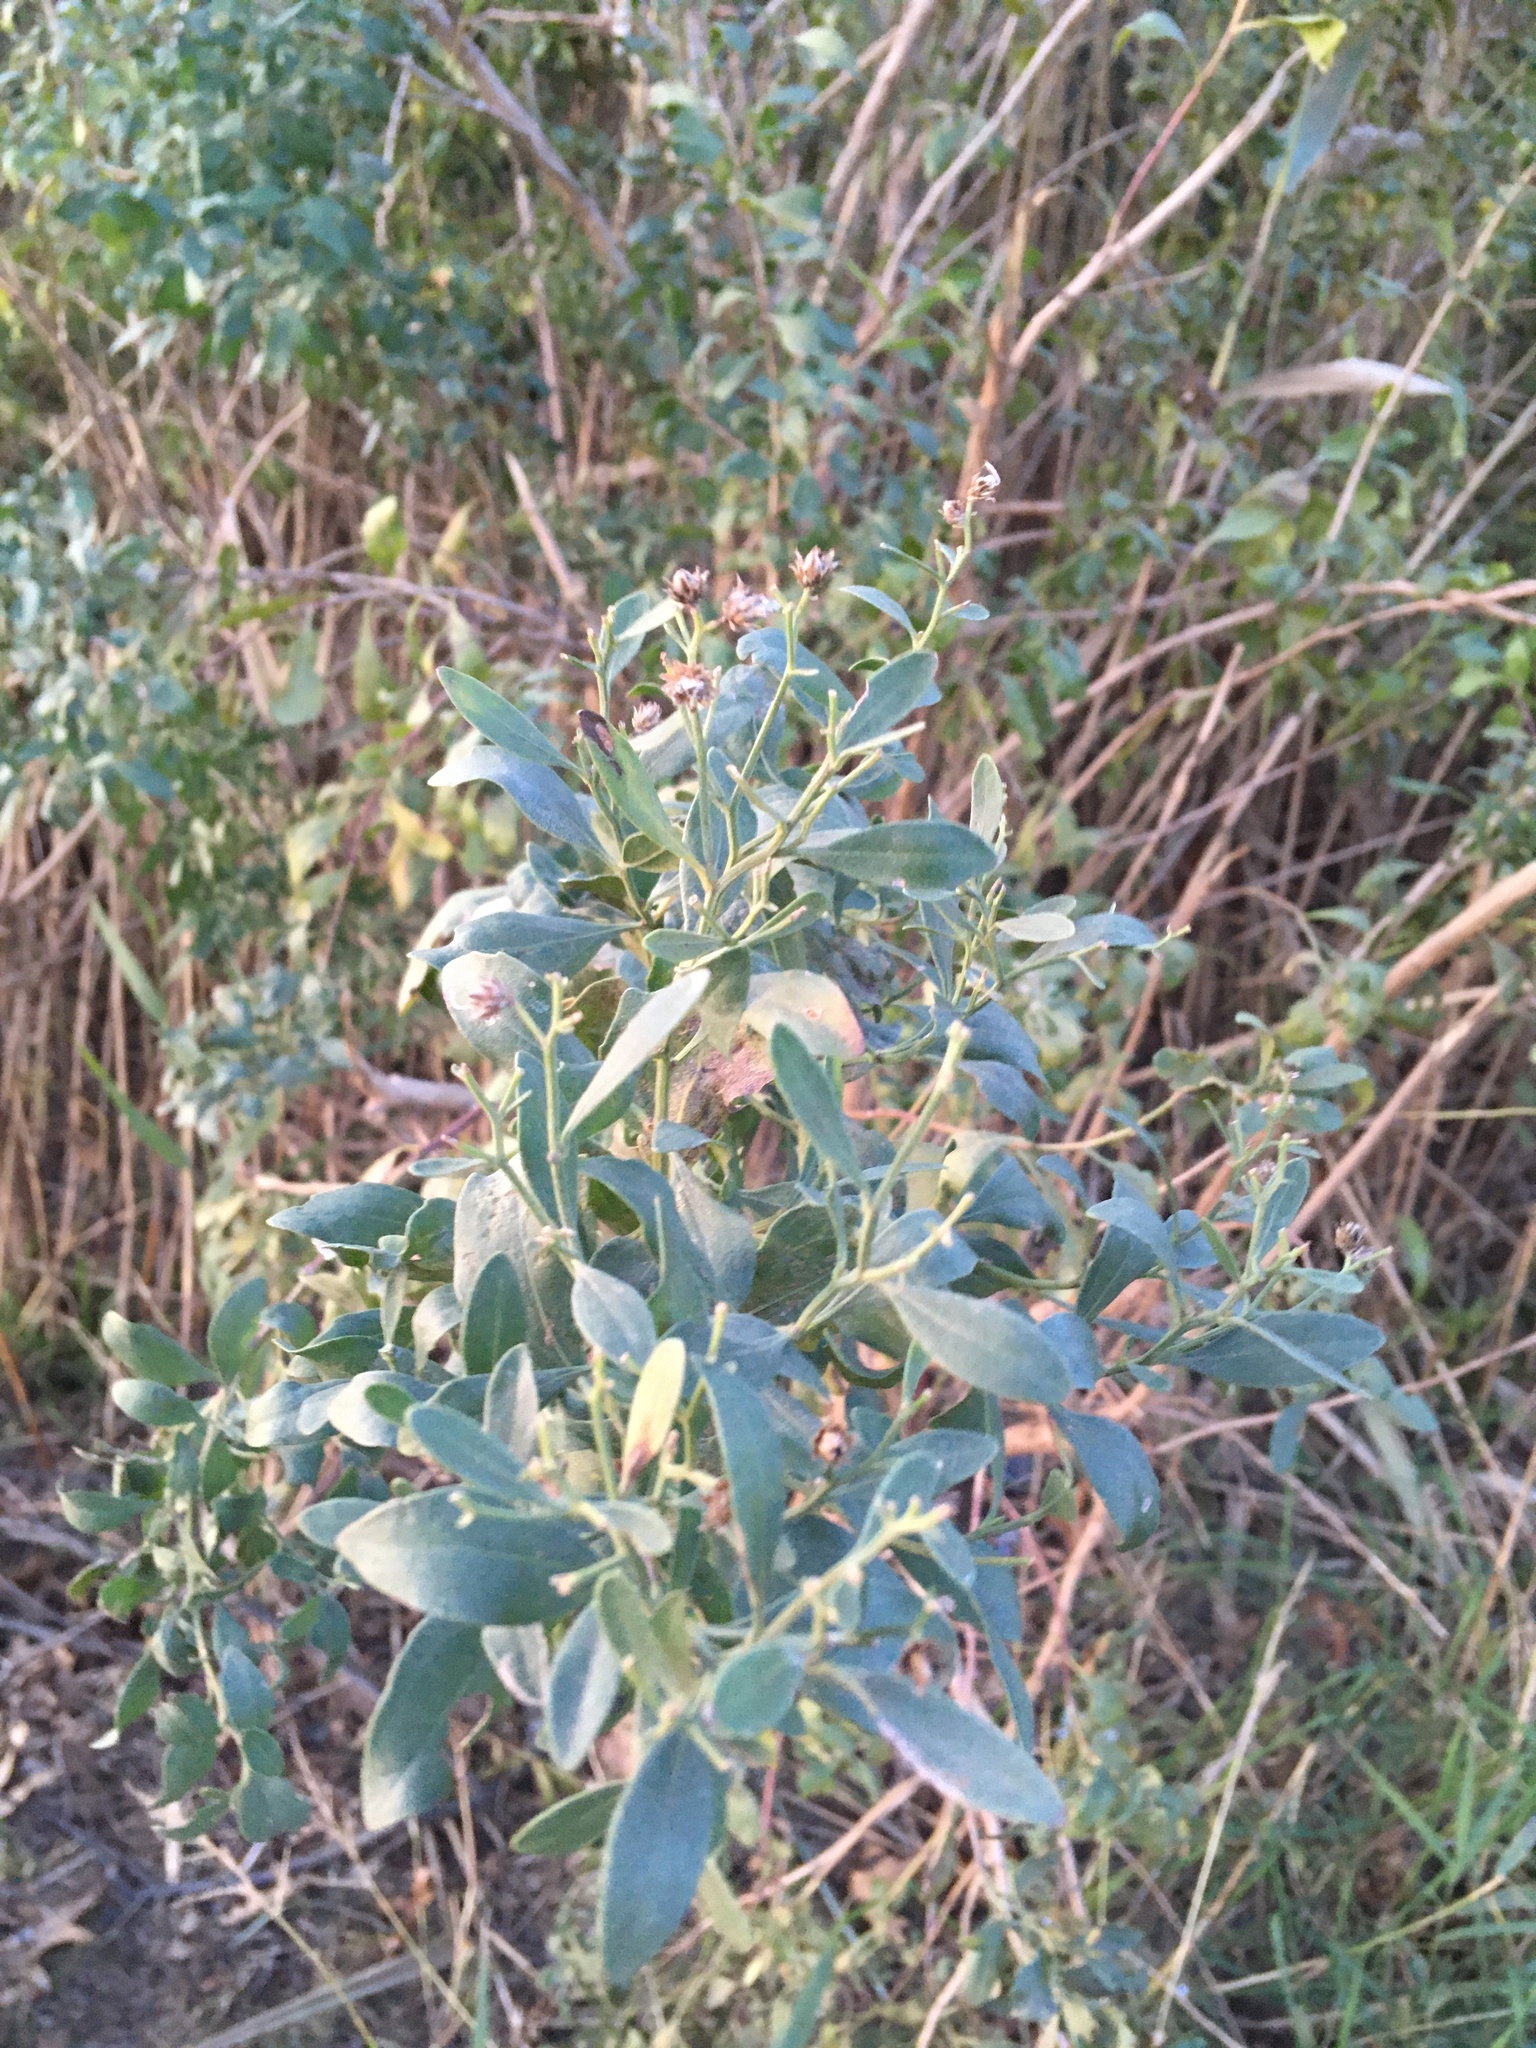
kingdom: Plantae
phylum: Tracheophyta
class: Magnoliopsida
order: Asterales
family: Asteraceae
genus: Baccharis
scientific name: Baccharis halimifolia
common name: Eastern baccharis
